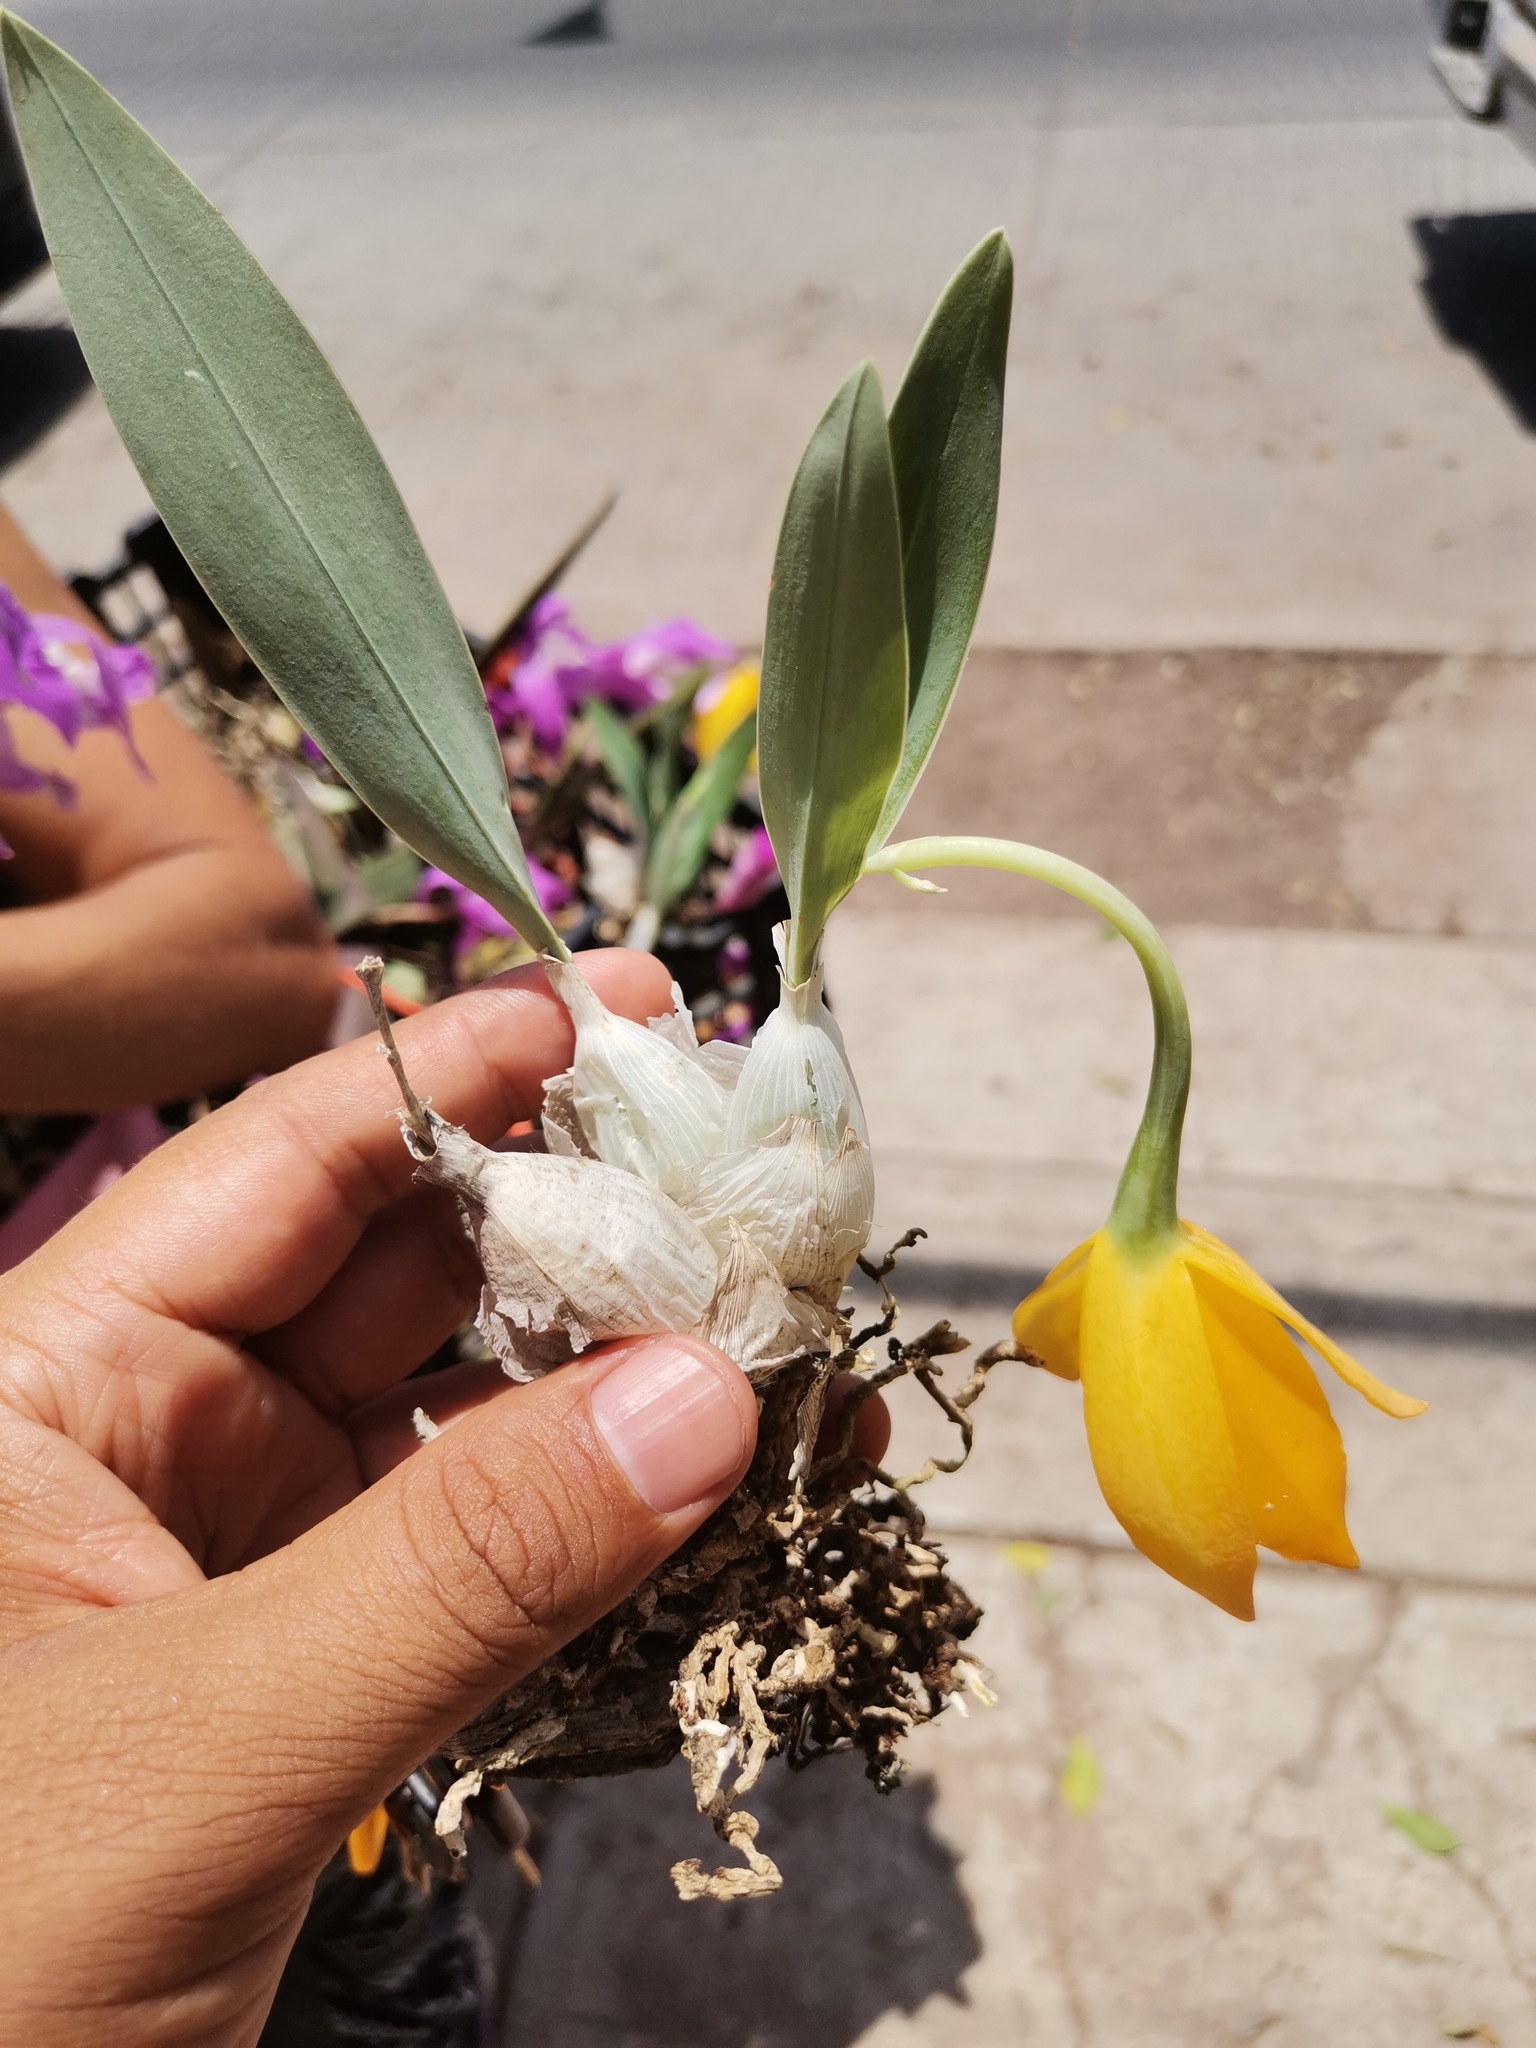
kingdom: Plantae
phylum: Tracheophyta
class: Liliopsida
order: Asparagales
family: Orchidaceae
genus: Prosthechea
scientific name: Prosthechea citrina
